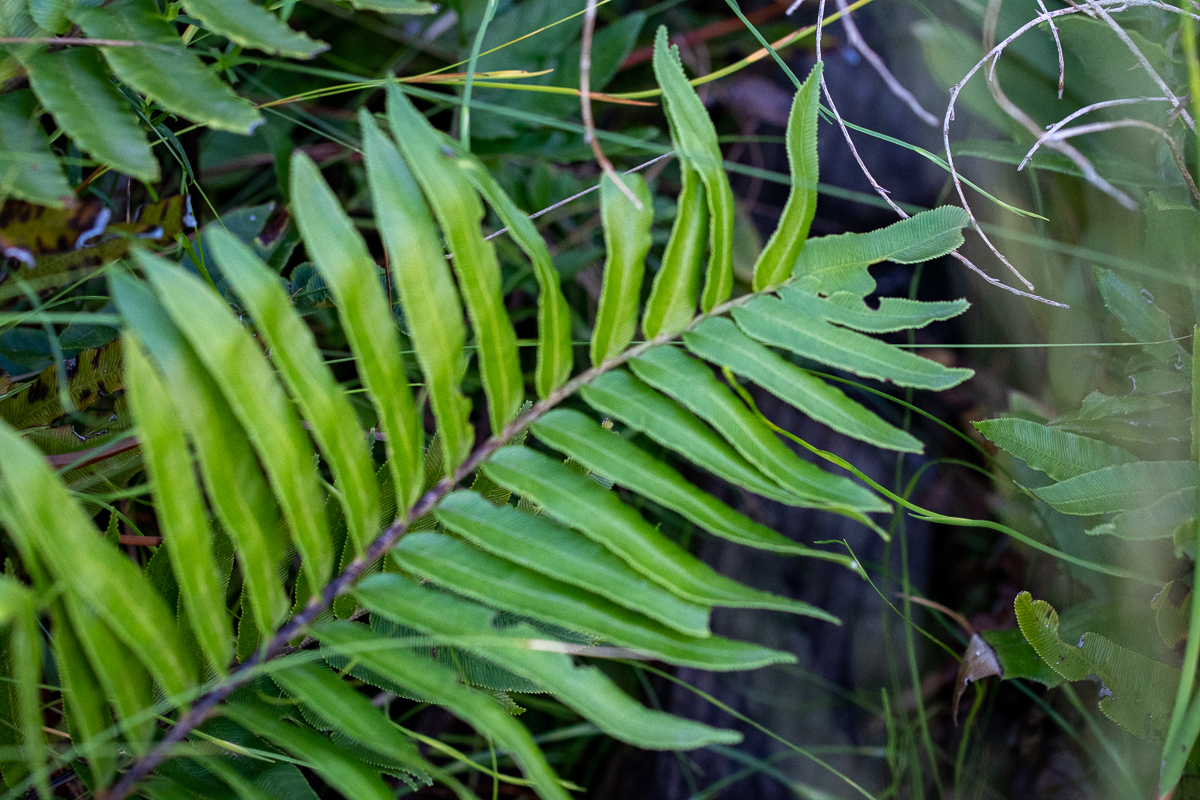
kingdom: Plantae
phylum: Tracheophyta
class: Polypodiopsida
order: Polypodiales
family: Blechnaceae
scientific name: Blechnaceae
